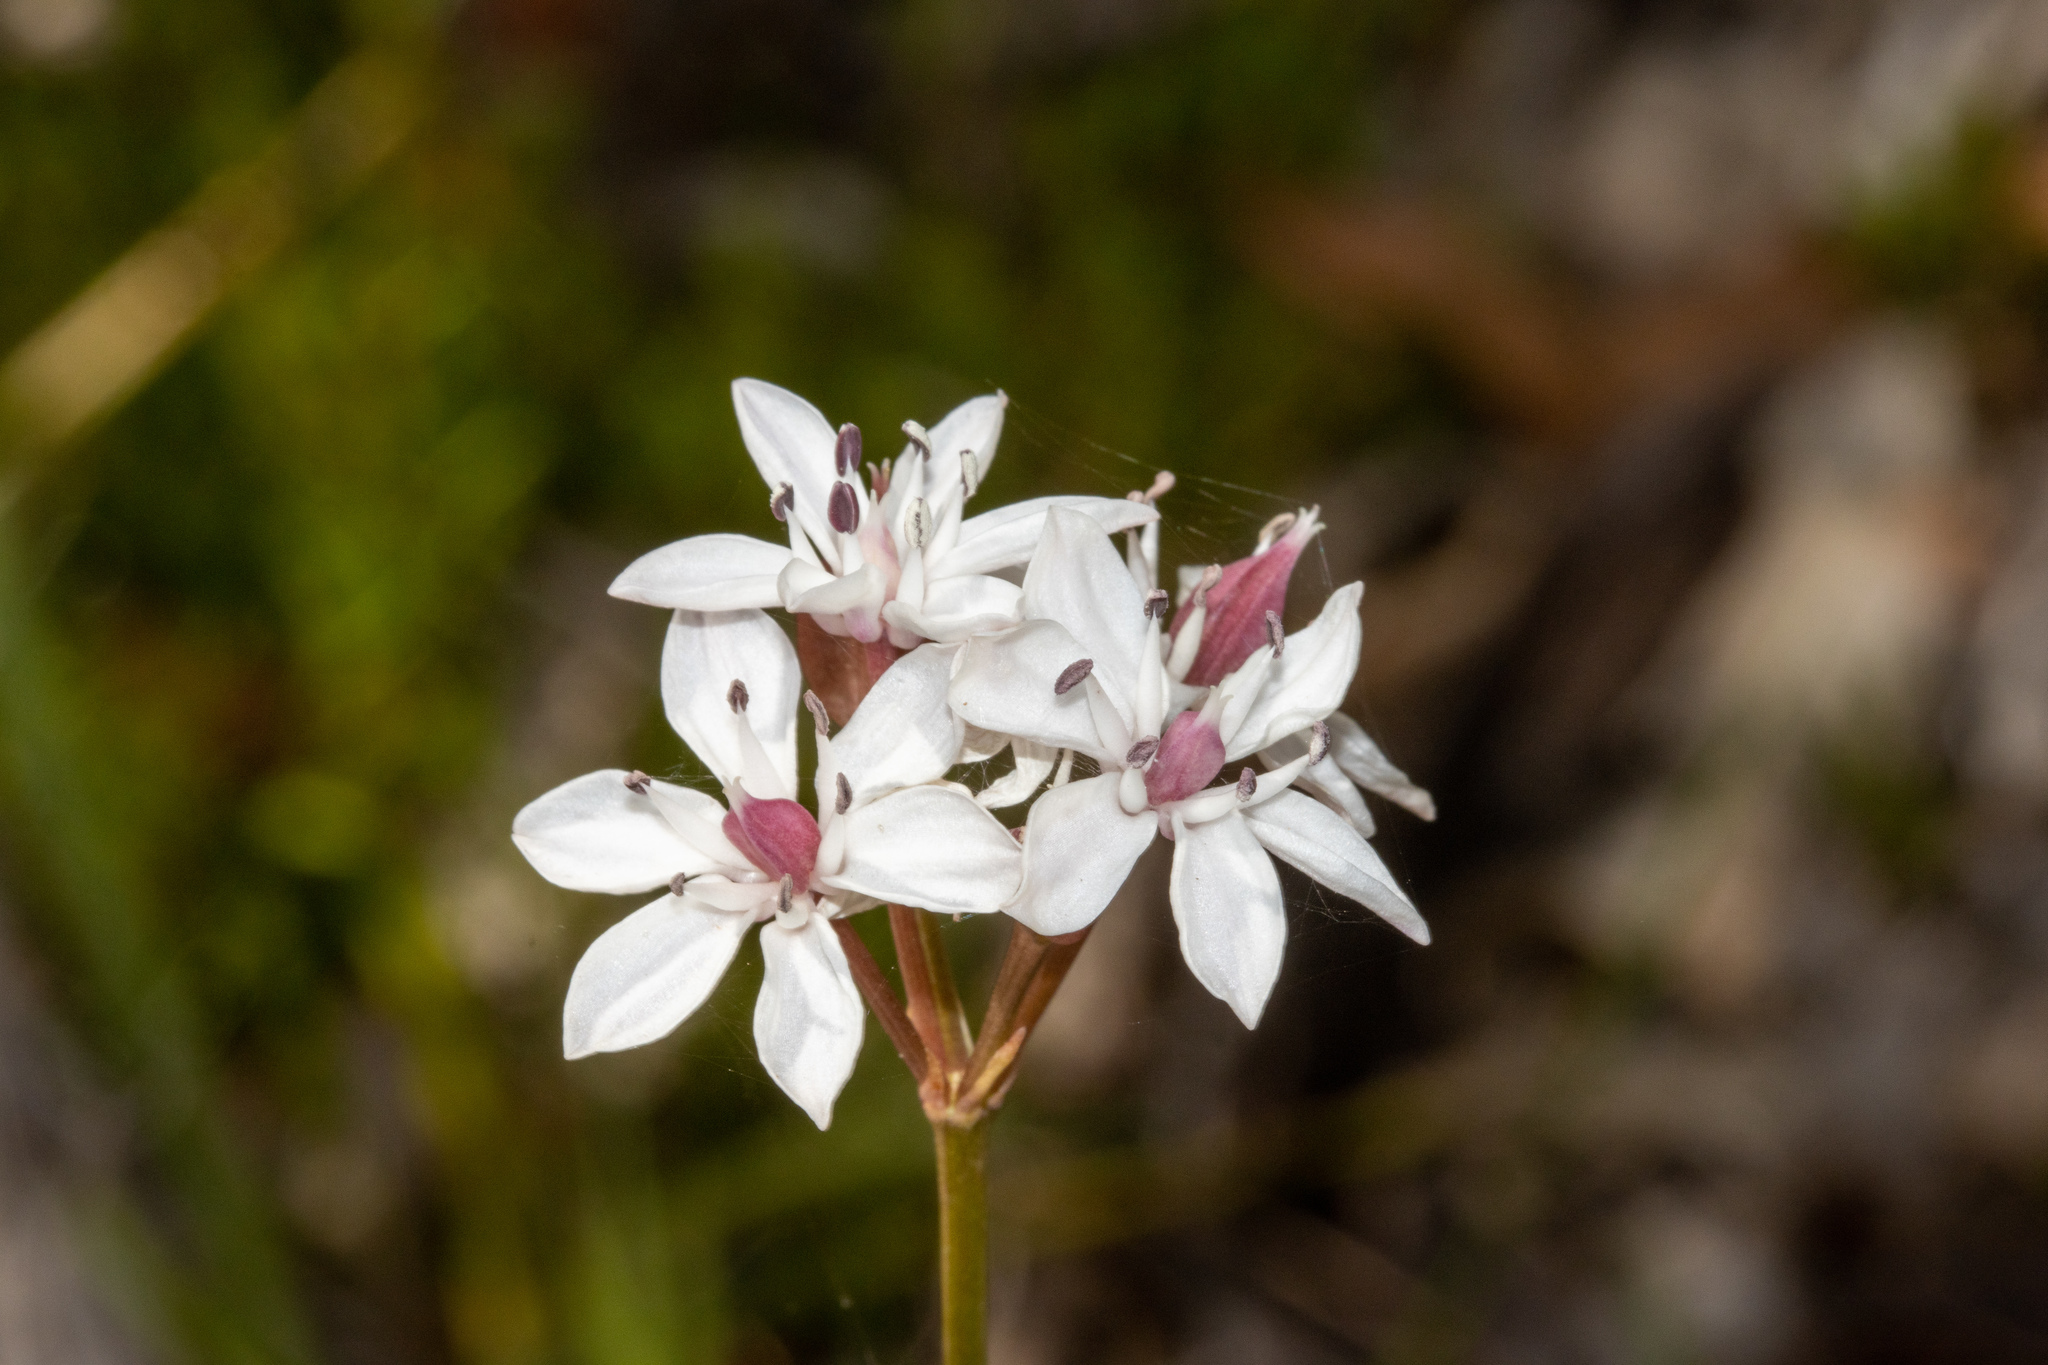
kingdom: Plantae
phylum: Tracheophyta
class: Liliopsida
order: Liliales
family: Colchicaceae
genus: Burchardia
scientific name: Burchardia umbellata
